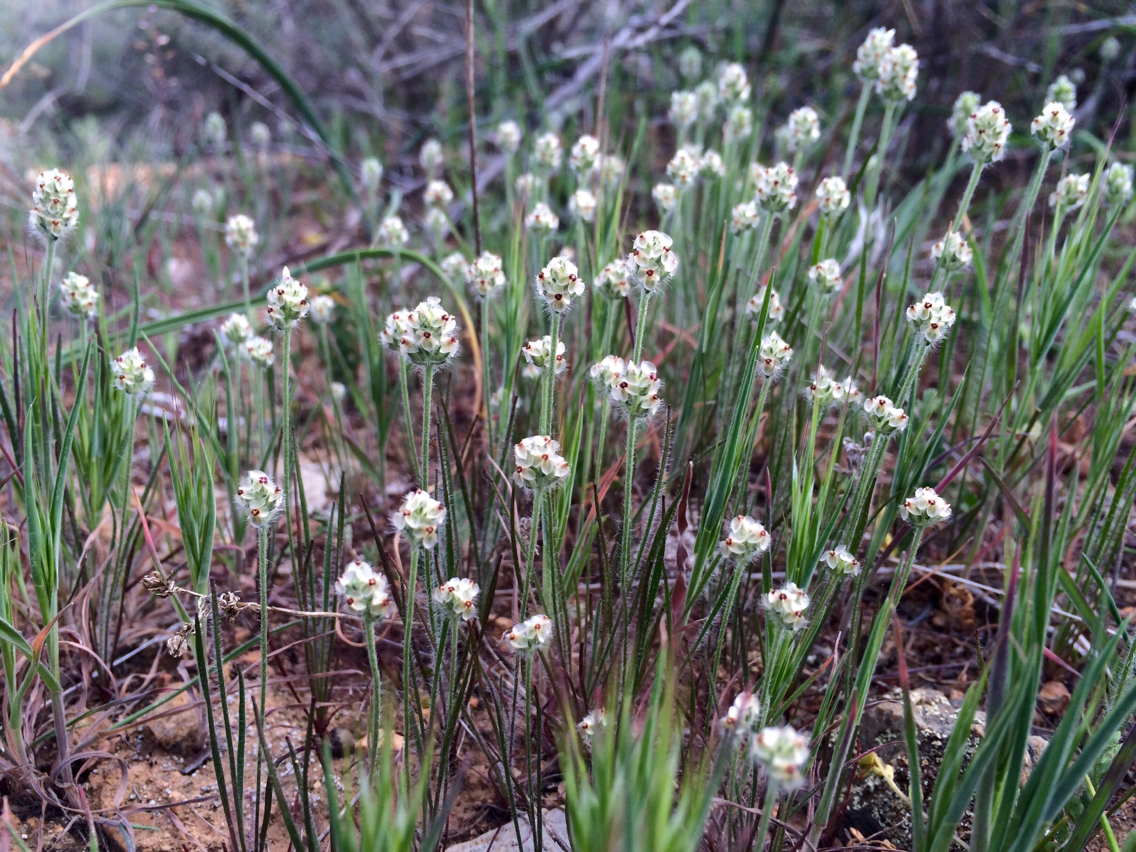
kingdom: Plantae
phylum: Tracheophyta
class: Magnoliopsida
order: Lamiales
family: Plantaginaceae
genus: Plantago
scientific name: Plantago erecta
